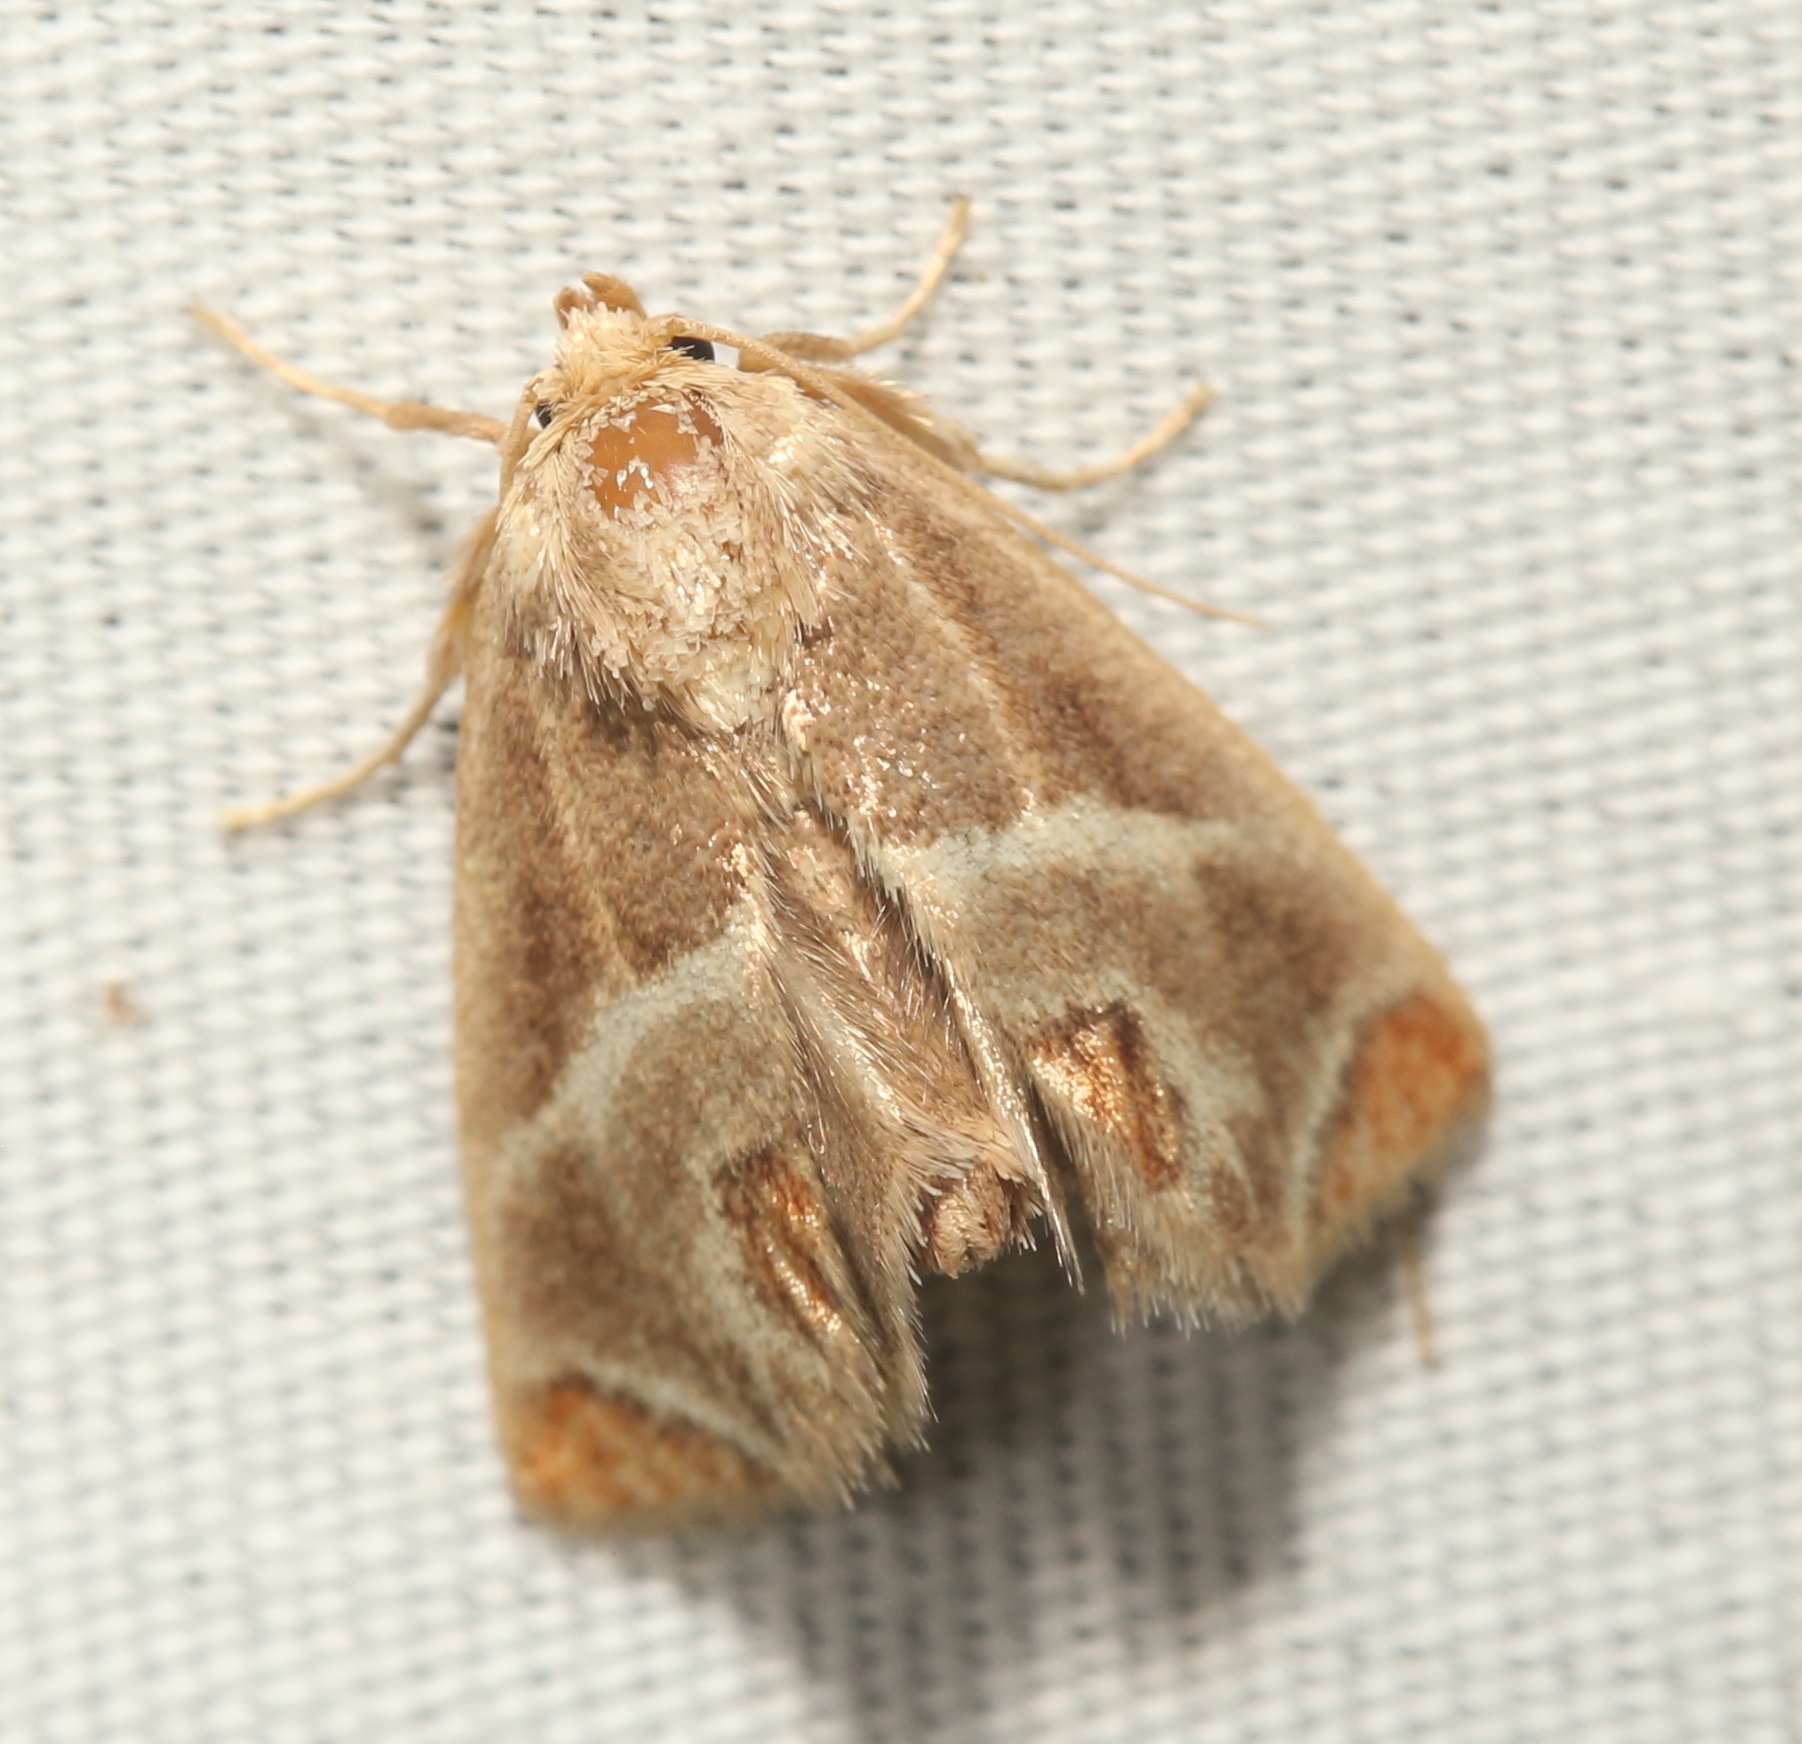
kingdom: Animalia
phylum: Arthropoda
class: Insecta
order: Lepidoptera
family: Limacodidae
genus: Apoda
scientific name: Apoda biguttata
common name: Shagreened slug moth
